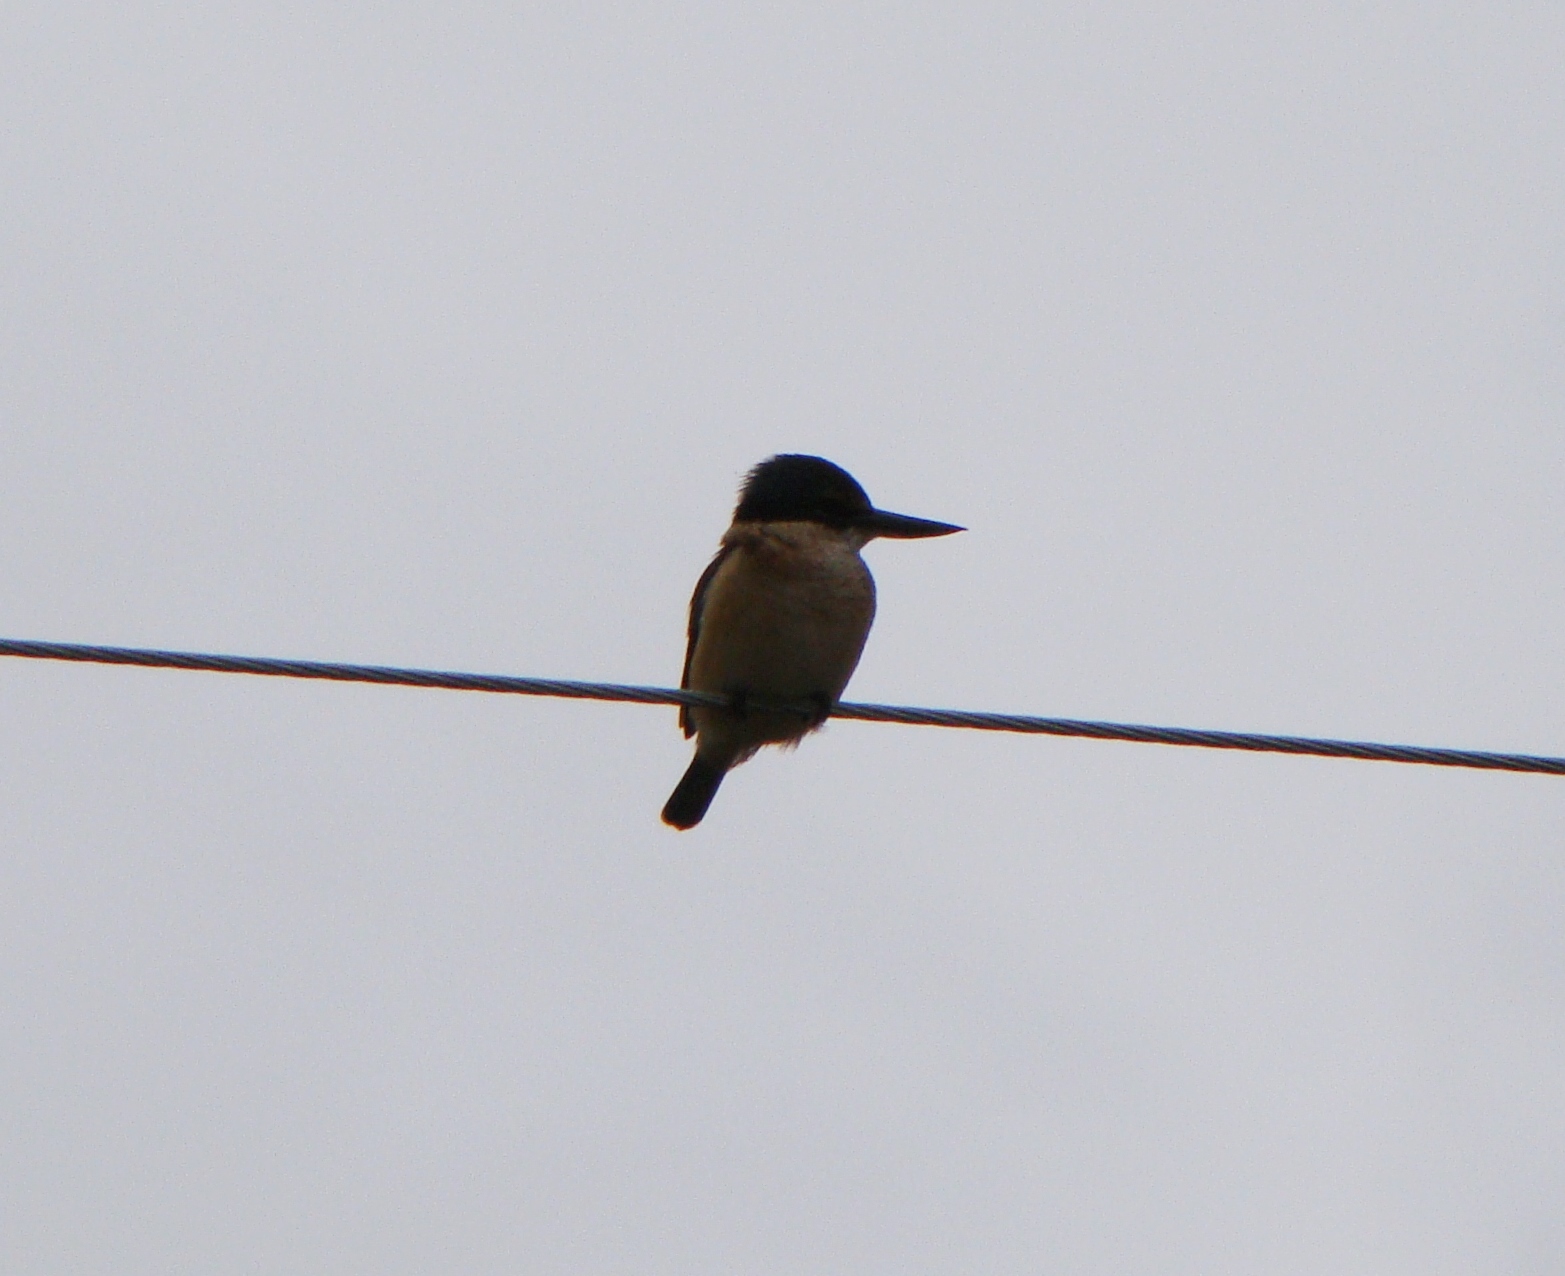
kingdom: Animalia
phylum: Chordata
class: Aves
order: Coraciiformes
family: Alcedinidae
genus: Todiramphus
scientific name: Todiramphus sanctus
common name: Sacred kingfisher
